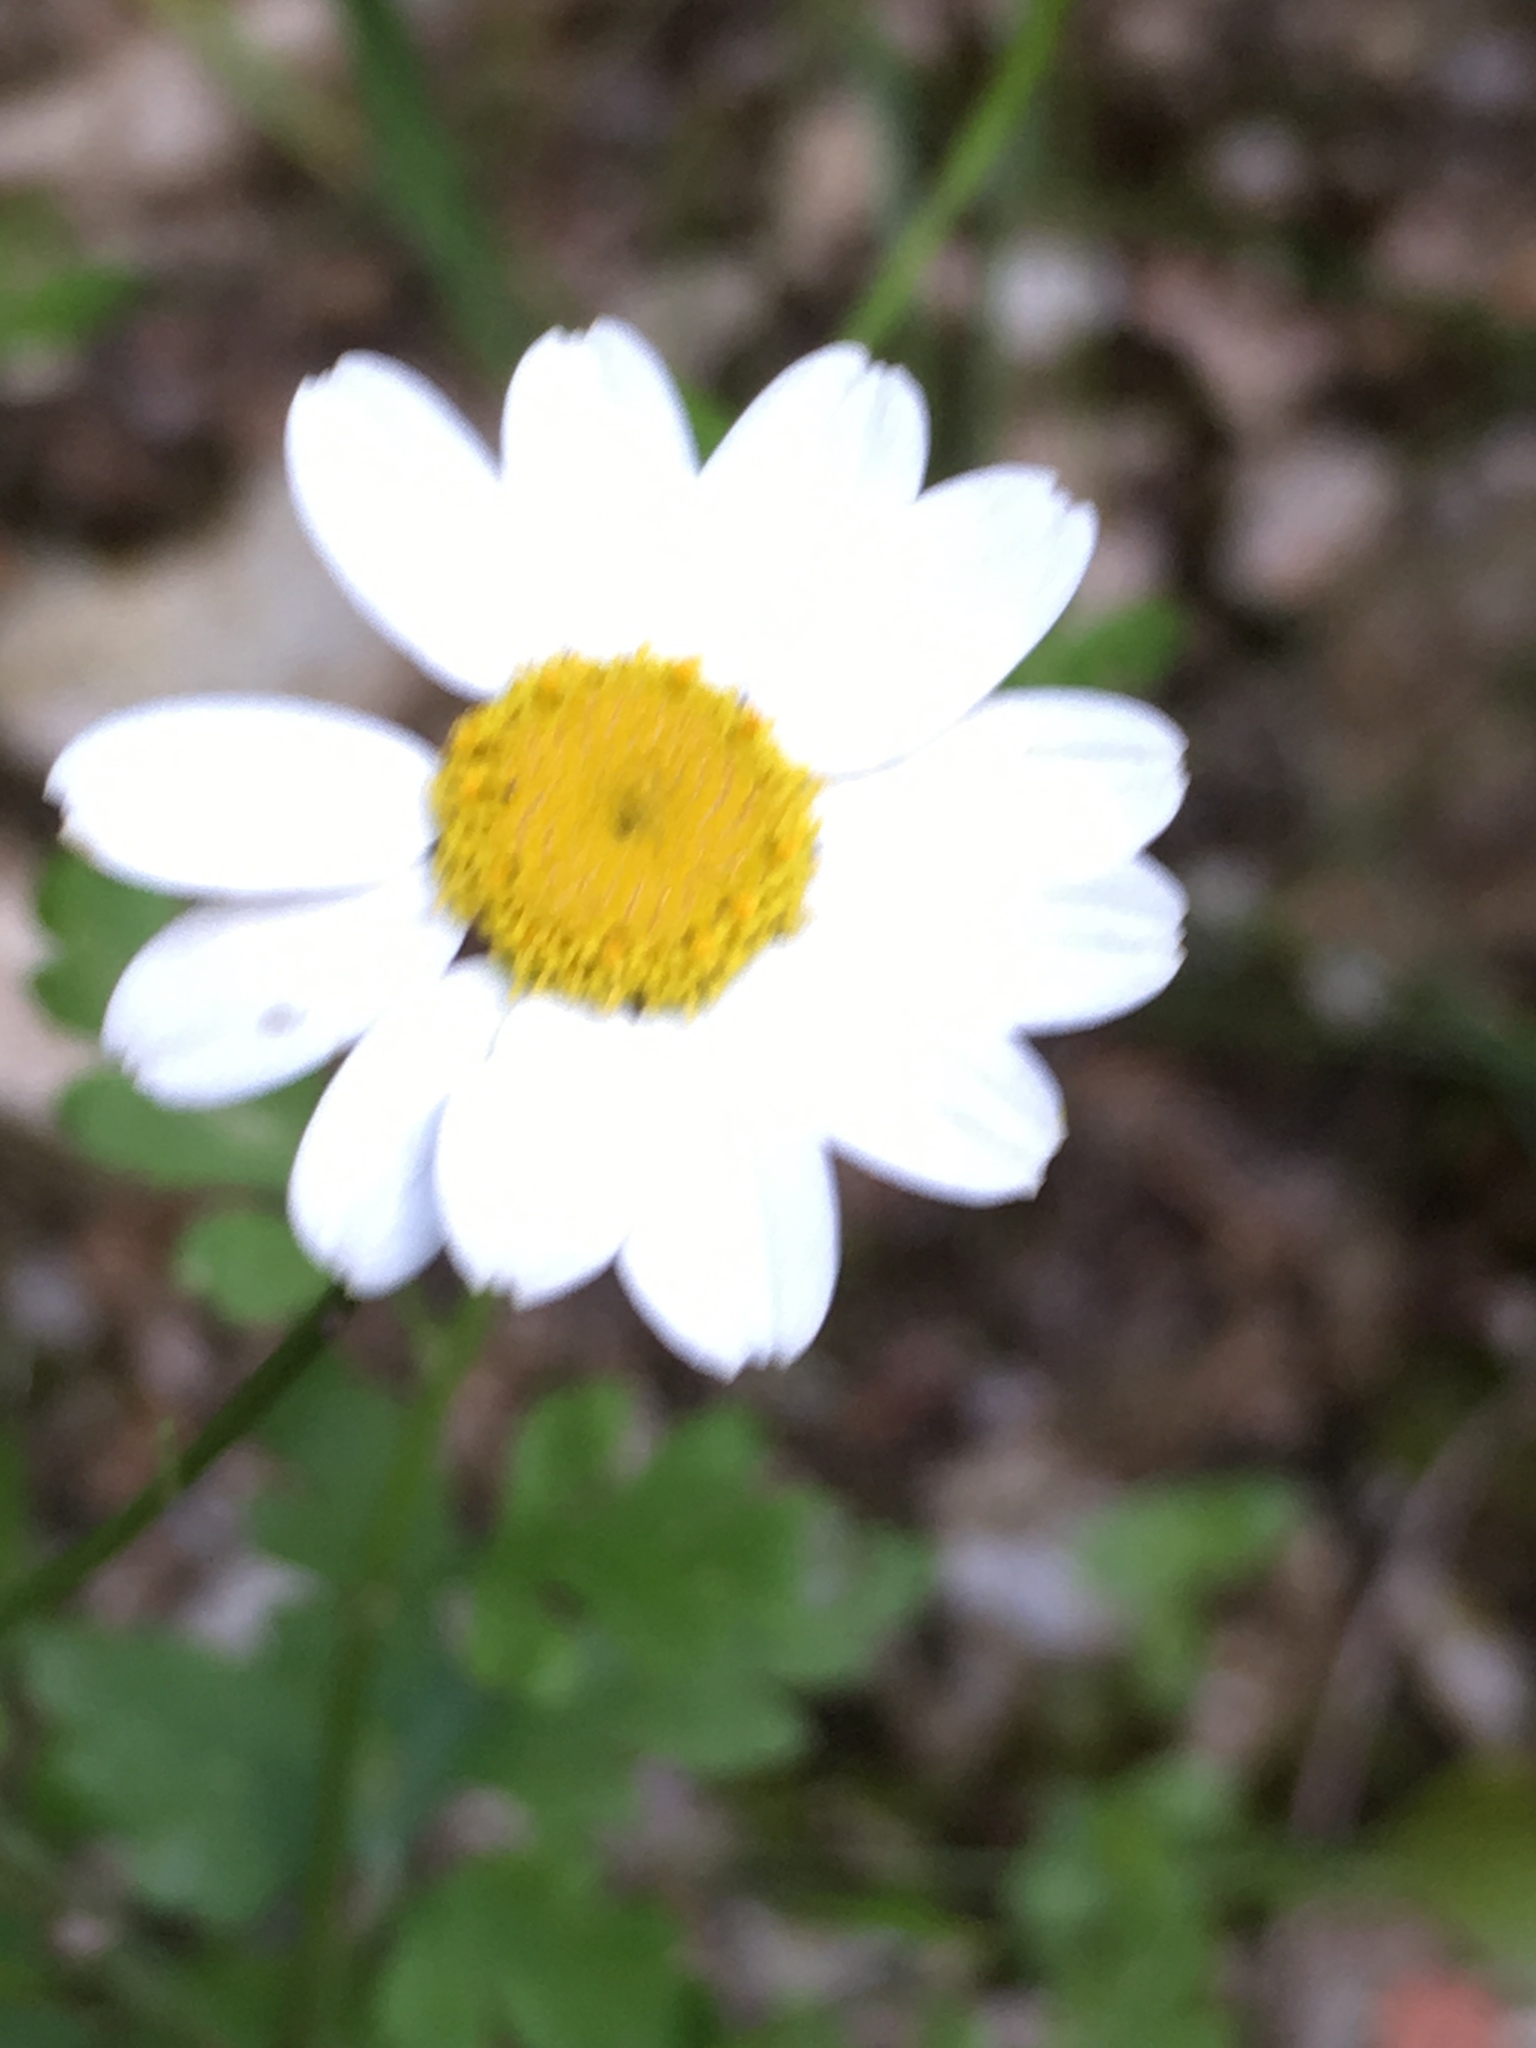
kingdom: Plantae
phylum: Tracheophyta
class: Magnoliopsida
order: Asterales
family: Asteraceae
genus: Tanacetum
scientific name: Tanacetum parthenium
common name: Feverfew
